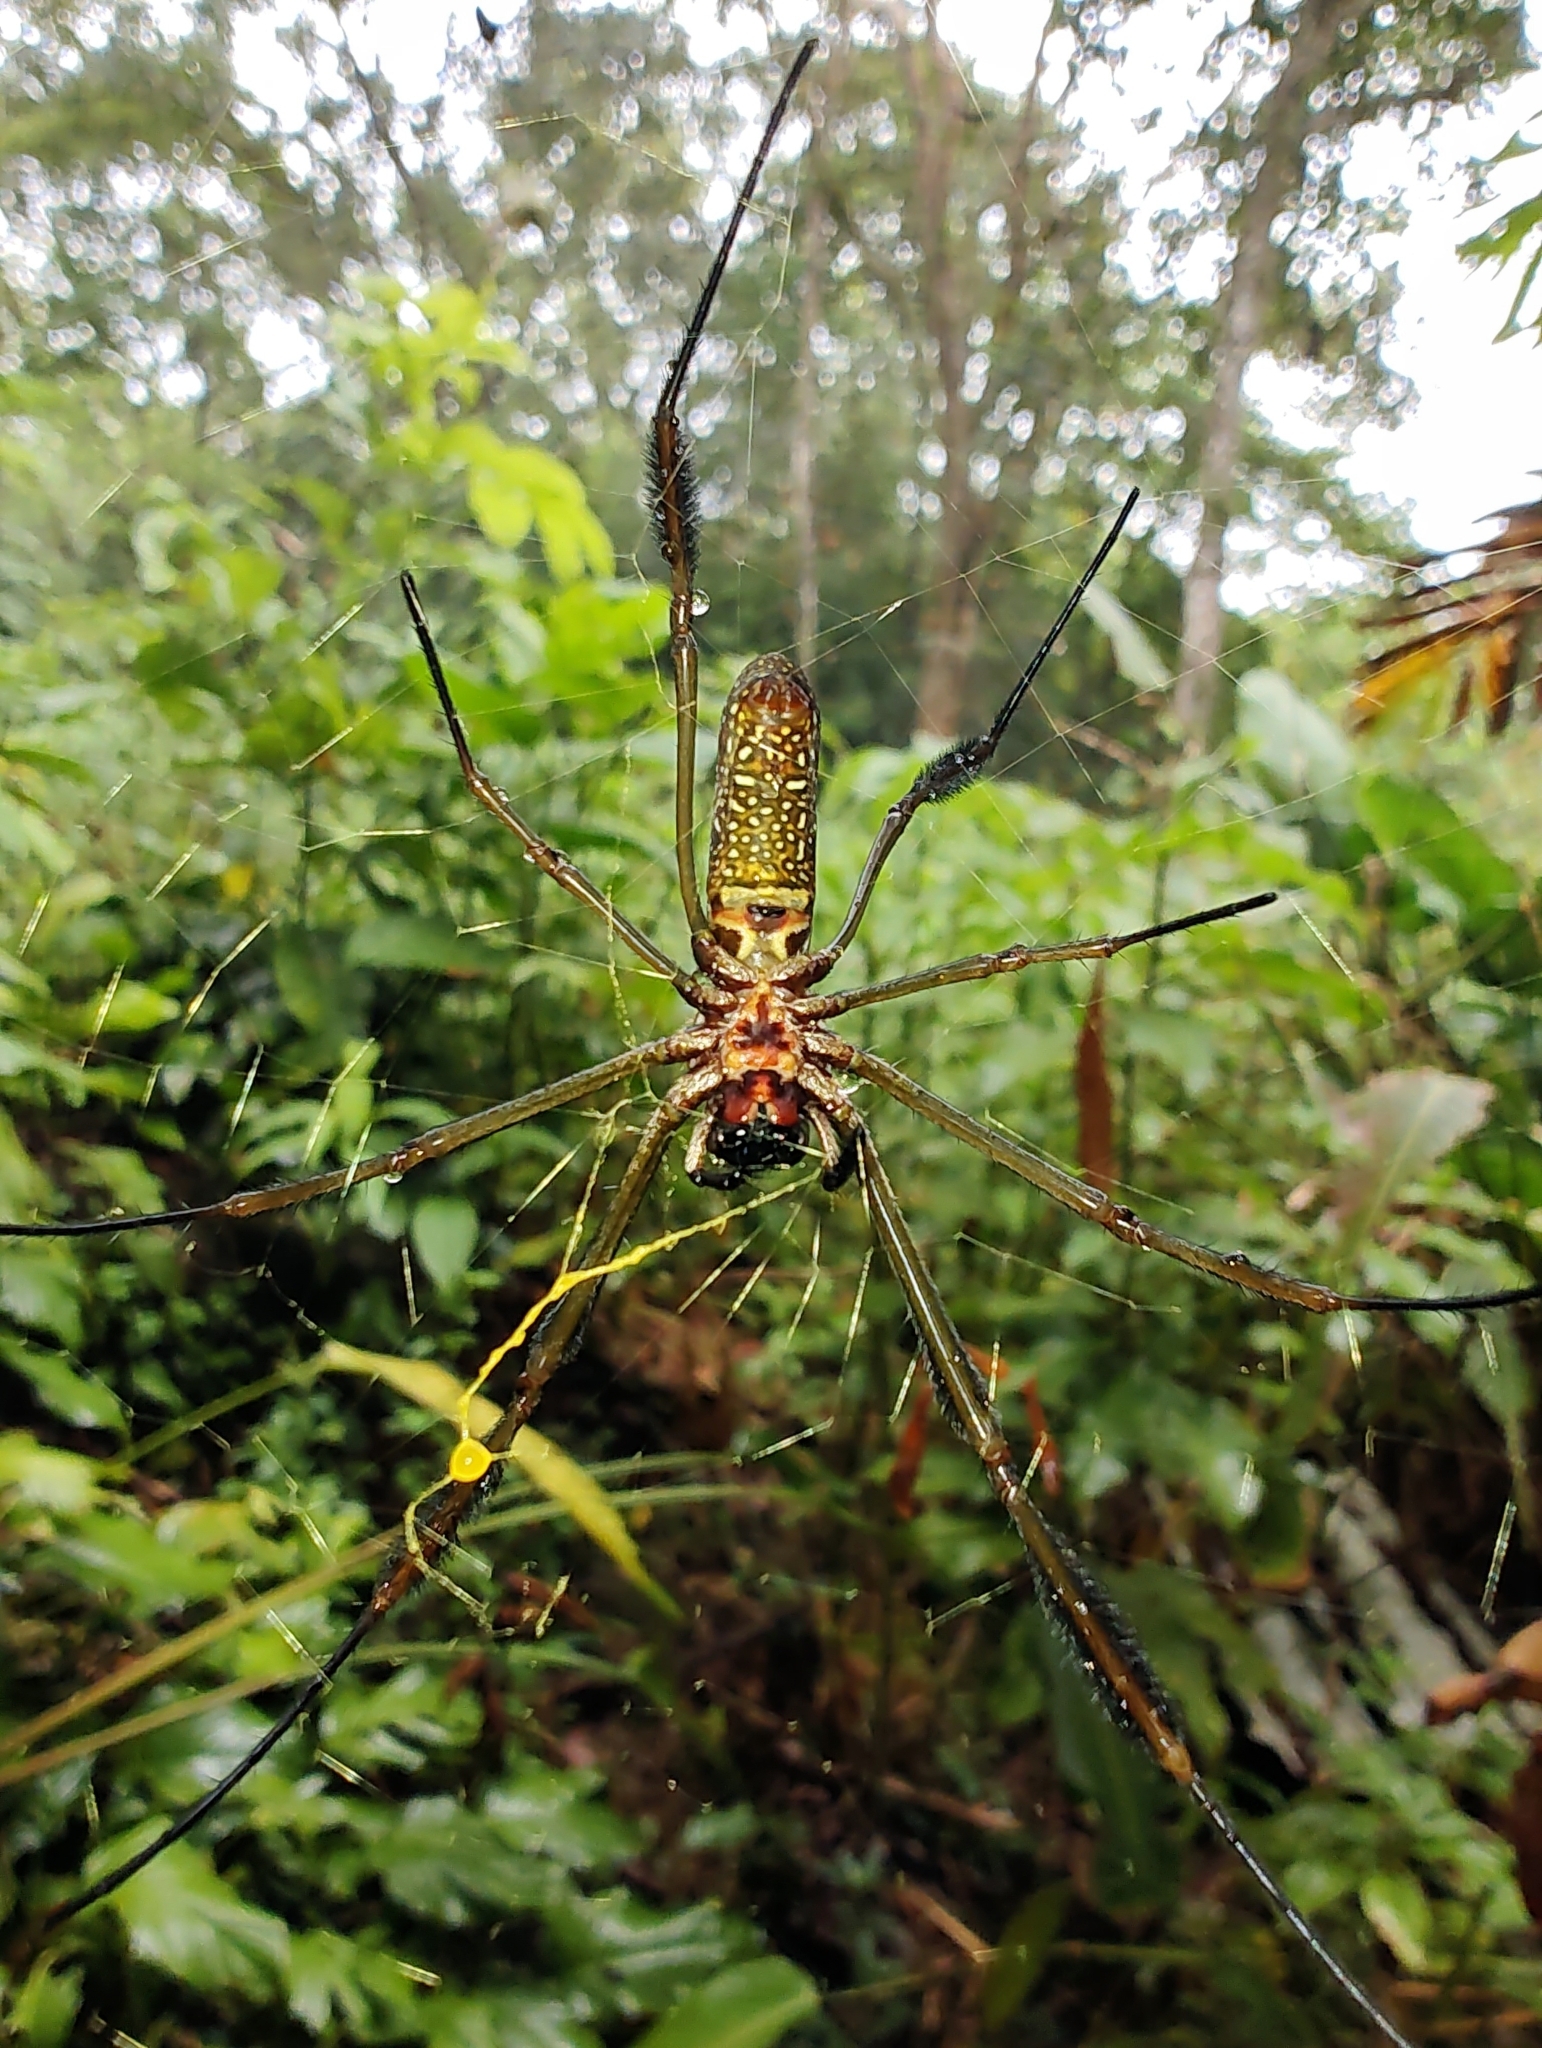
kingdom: Animalia
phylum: Arthropoda
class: Arachnida
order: Araneae
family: Araneidae
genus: Trichonephila
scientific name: Trichonephila clavipes
